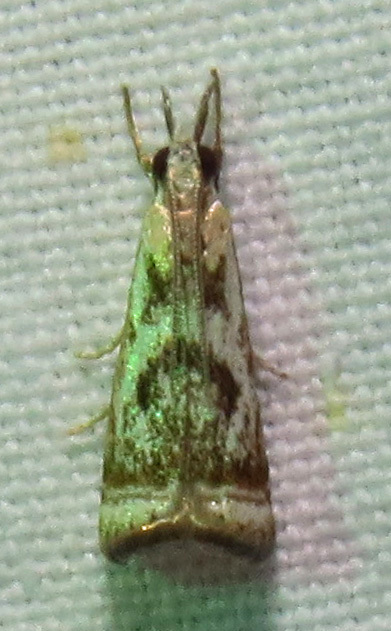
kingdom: Animalia
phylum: Arthropoda
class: Insecta
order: Lepidoptera
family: Crambidae
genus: Microcrambus
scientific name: Microcrambus elegans
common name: Elegant grass-veneer
